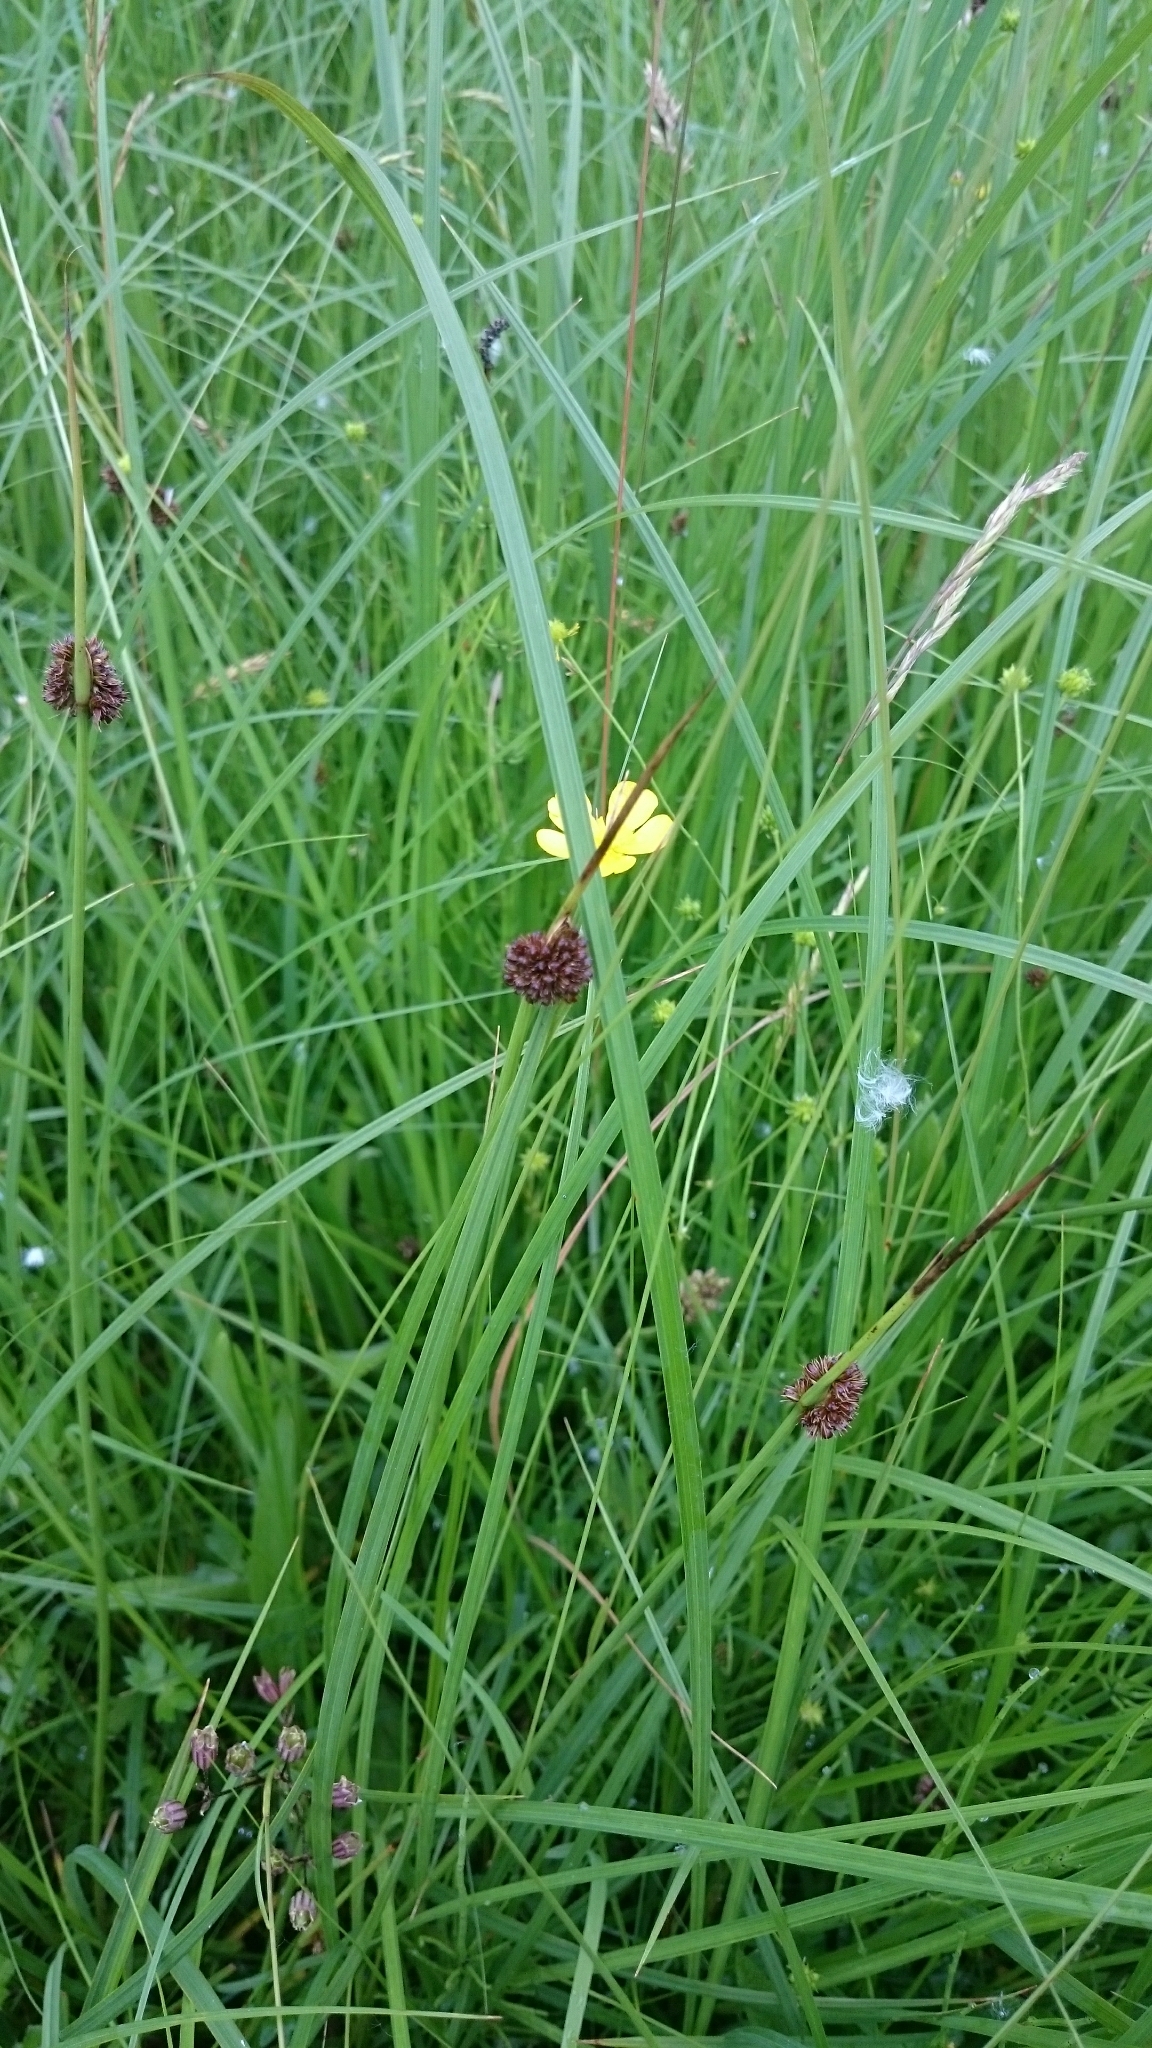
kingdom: Plantae
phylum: Tracheophyta
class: Liliopsida
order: Poales
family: Juncaceae
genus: Juncus
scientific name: Juncus conglomeratus
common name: Compact rush
